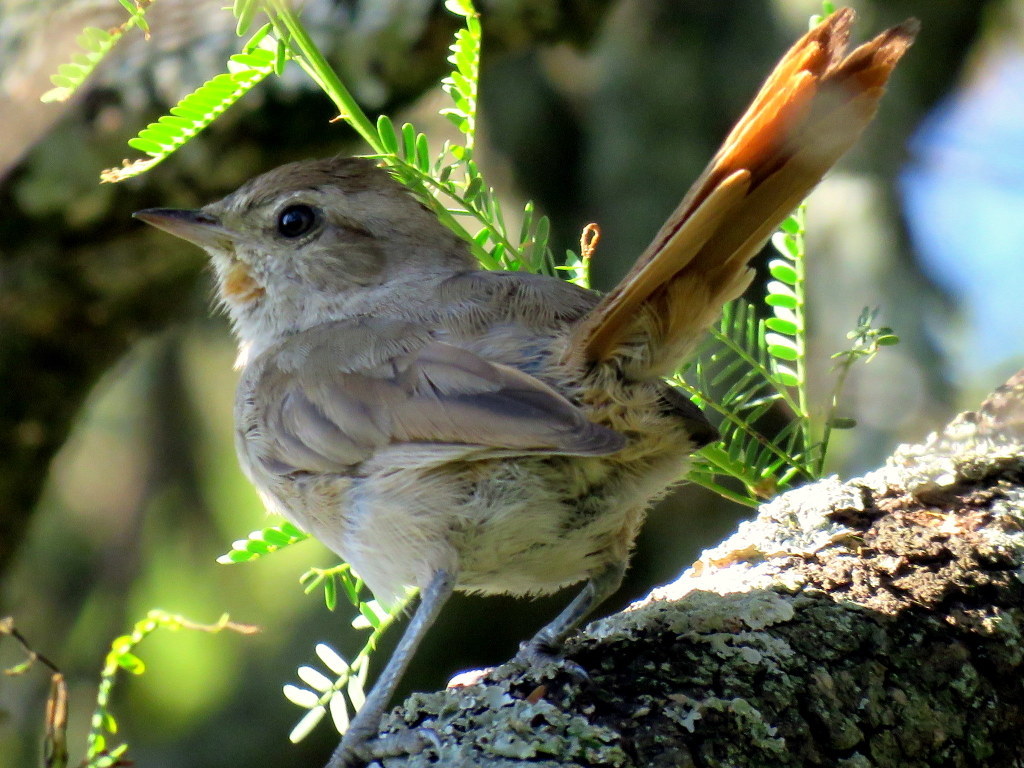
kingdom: Animalia
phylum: Chordata
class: Aves
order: Passeriformes
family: Furnariidae
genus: Asthenes
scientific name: Asthenes baeri
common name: Short-billed canastero
